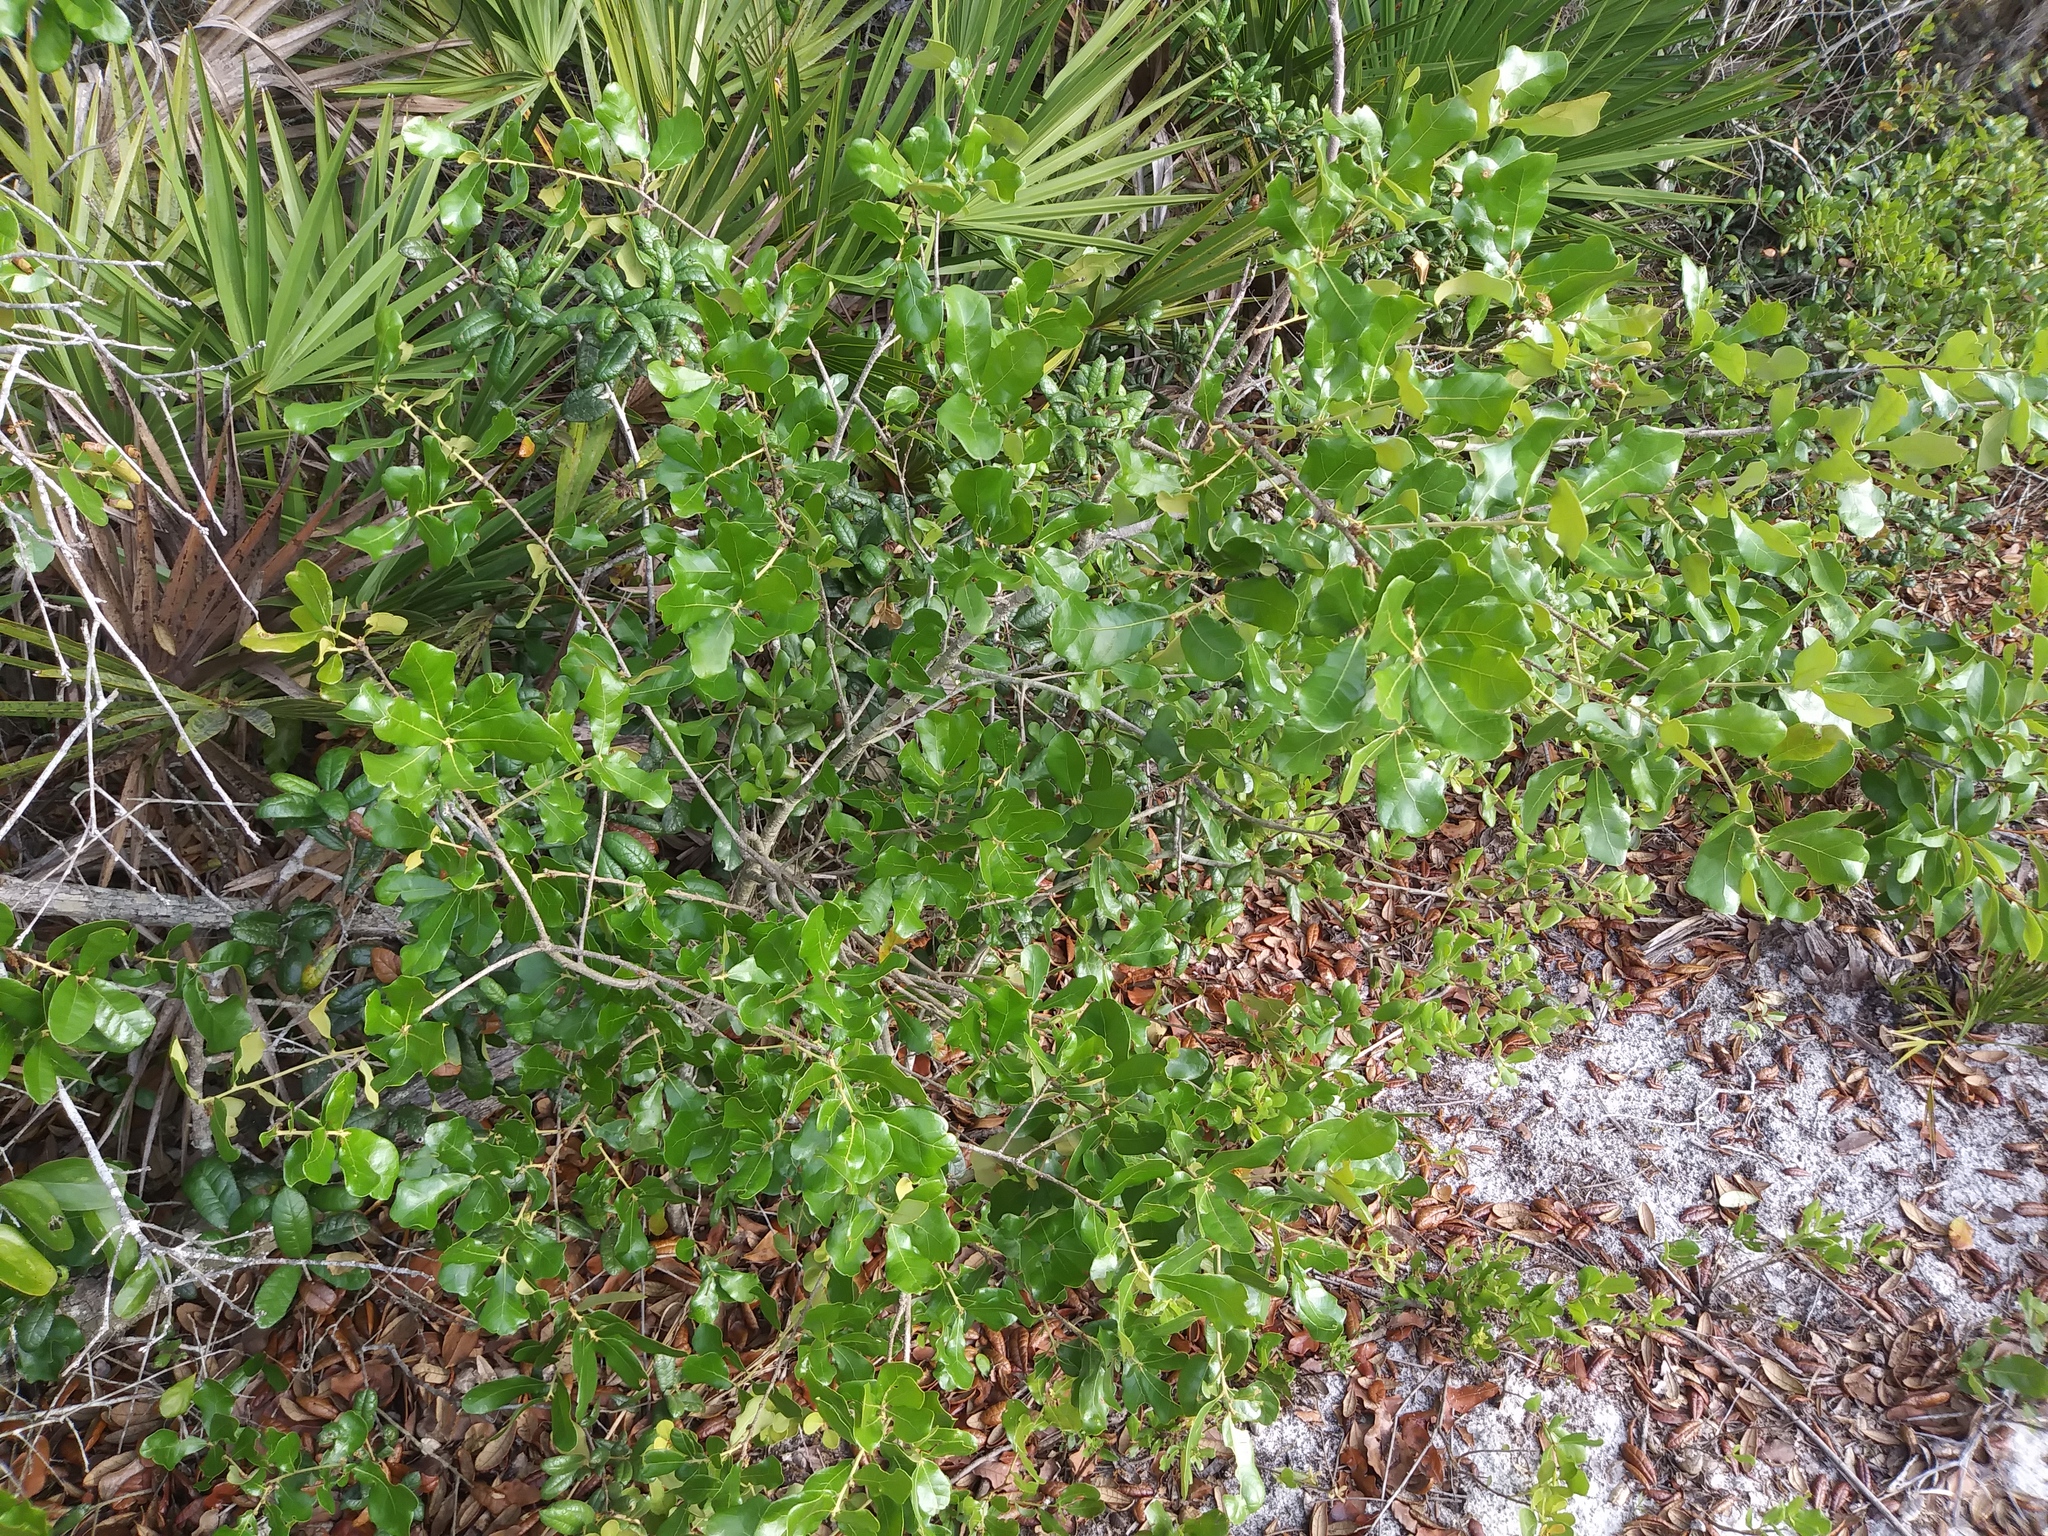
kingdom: Plantae
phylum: Tracheophyta
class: Magnoliopsida
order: Fagales
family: Fagaceae
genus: Quercus
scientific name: Quercus chapmanii
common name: Chapman oak
